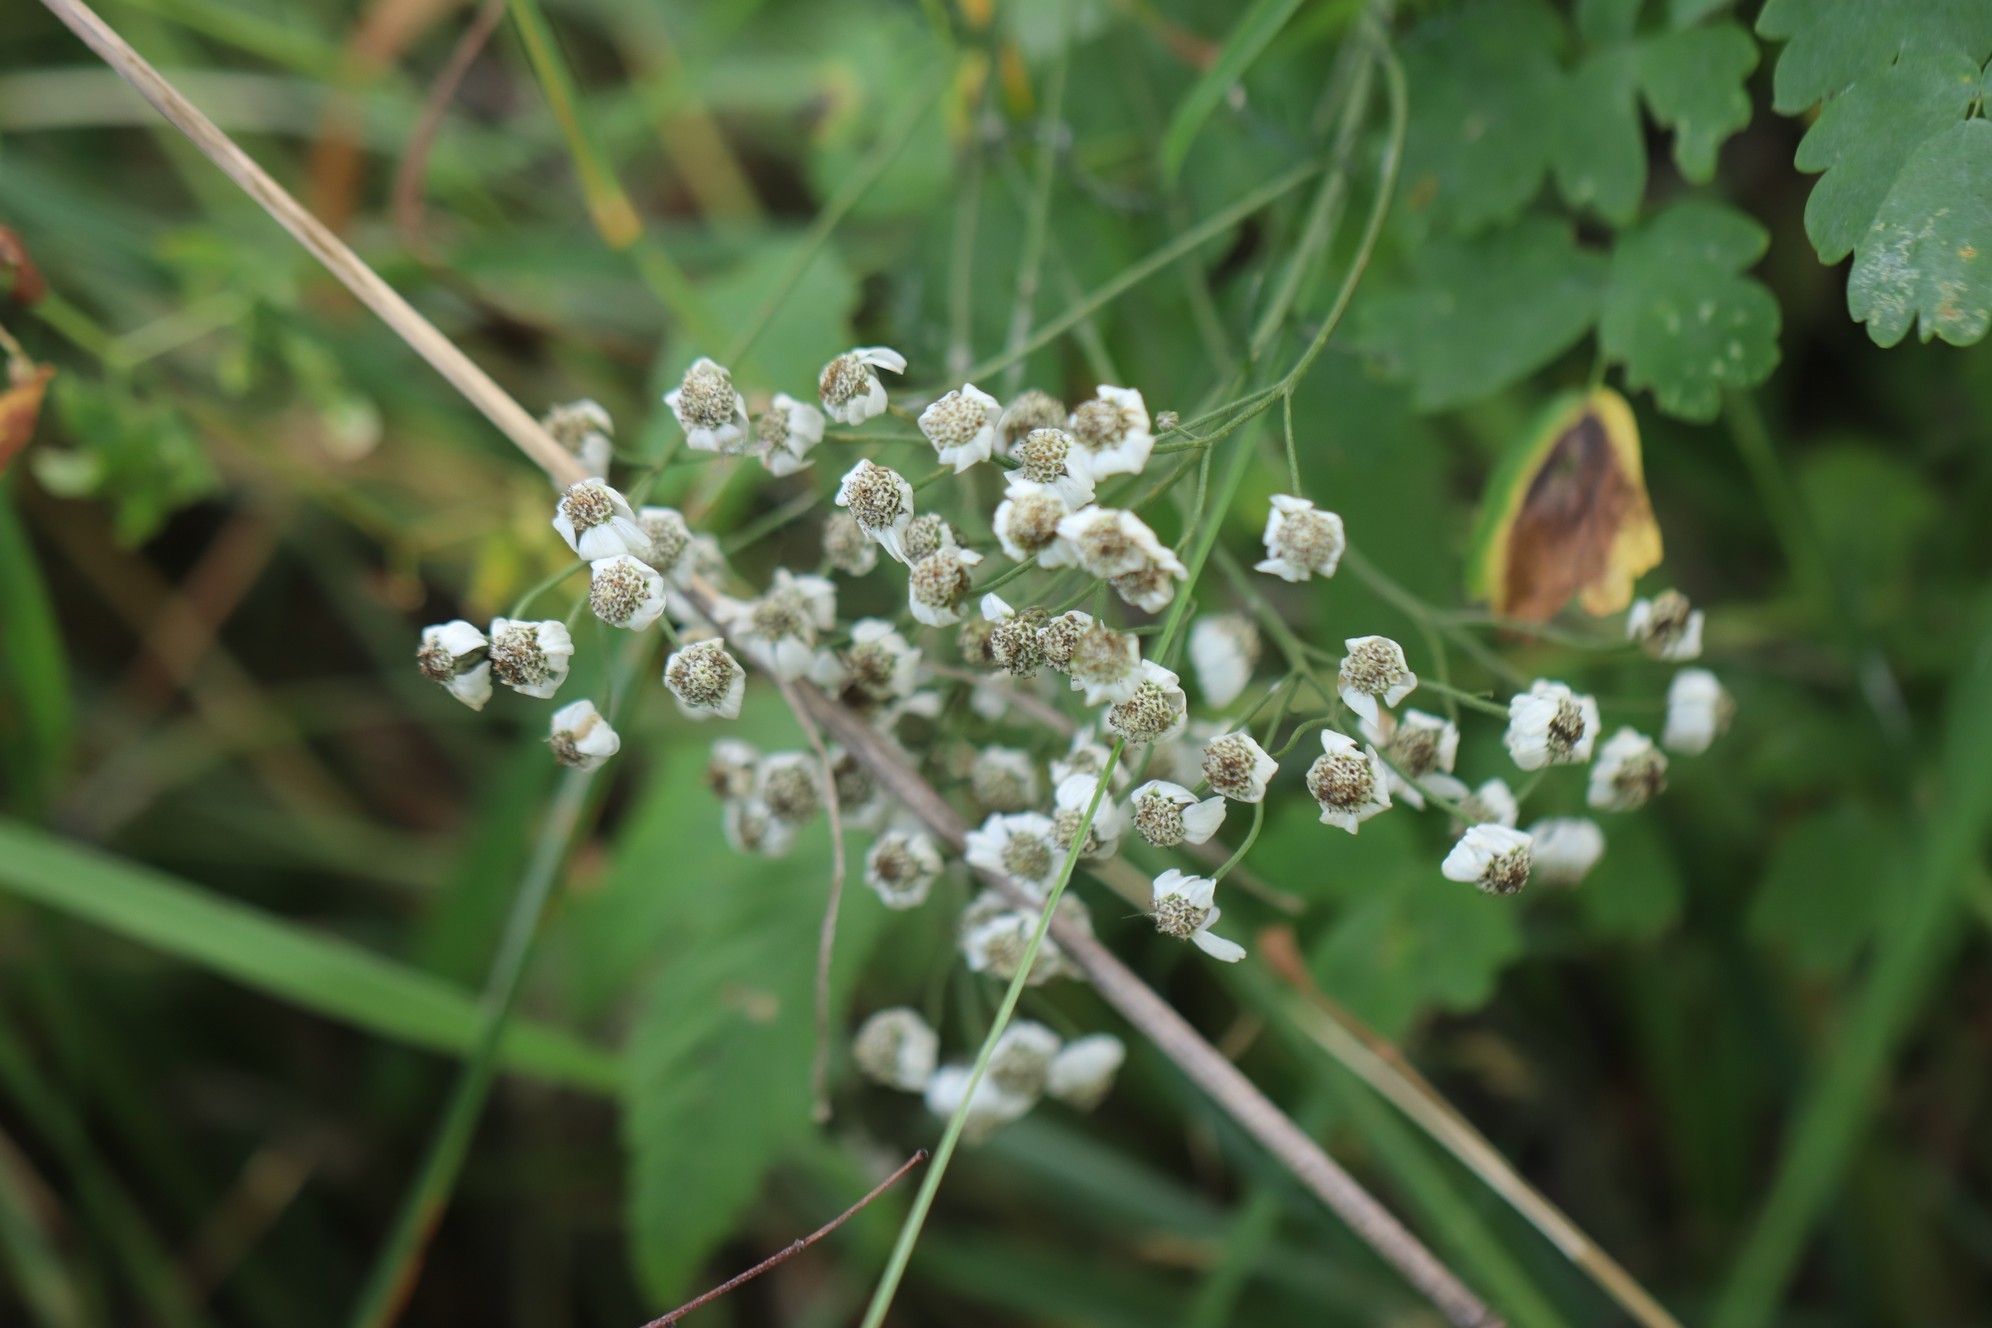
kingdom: Plantae
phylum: Tracheophyta
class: Magnoliopsida
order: Asterales
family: Asteraceae
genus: Achillea
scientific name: Achillea impatiens
